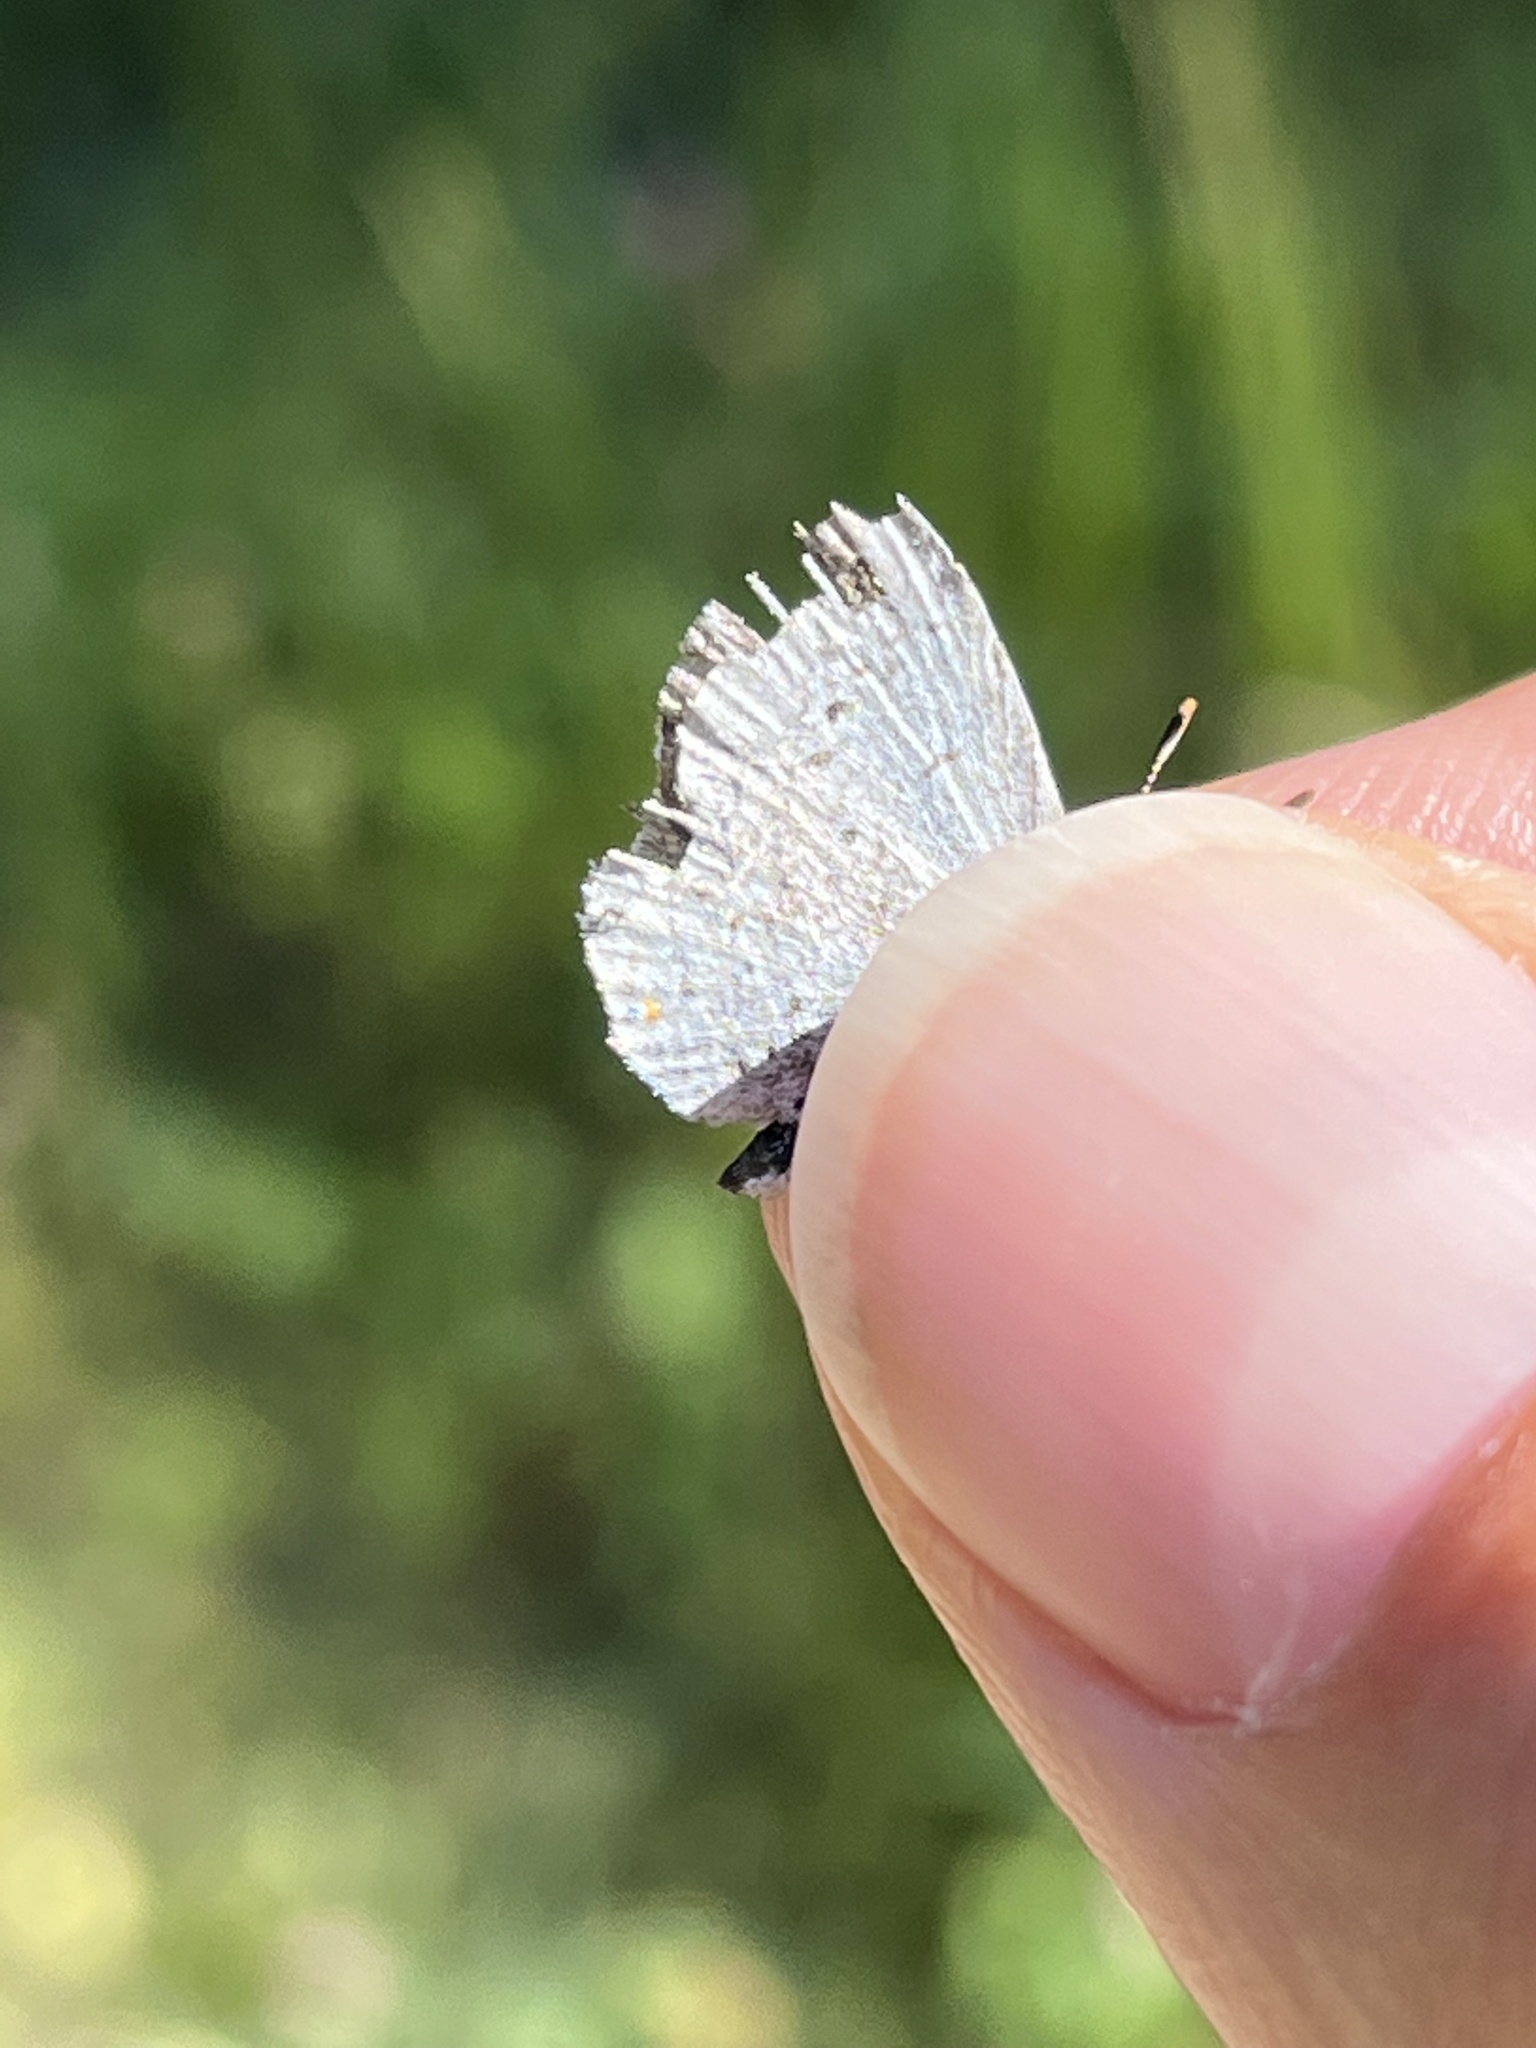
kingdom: Animalia
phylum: Arthropoda
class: Insecta
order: Lepidoptera
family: Lycaenidae
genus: Elkalyce
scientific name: Elkalyce amyntula
